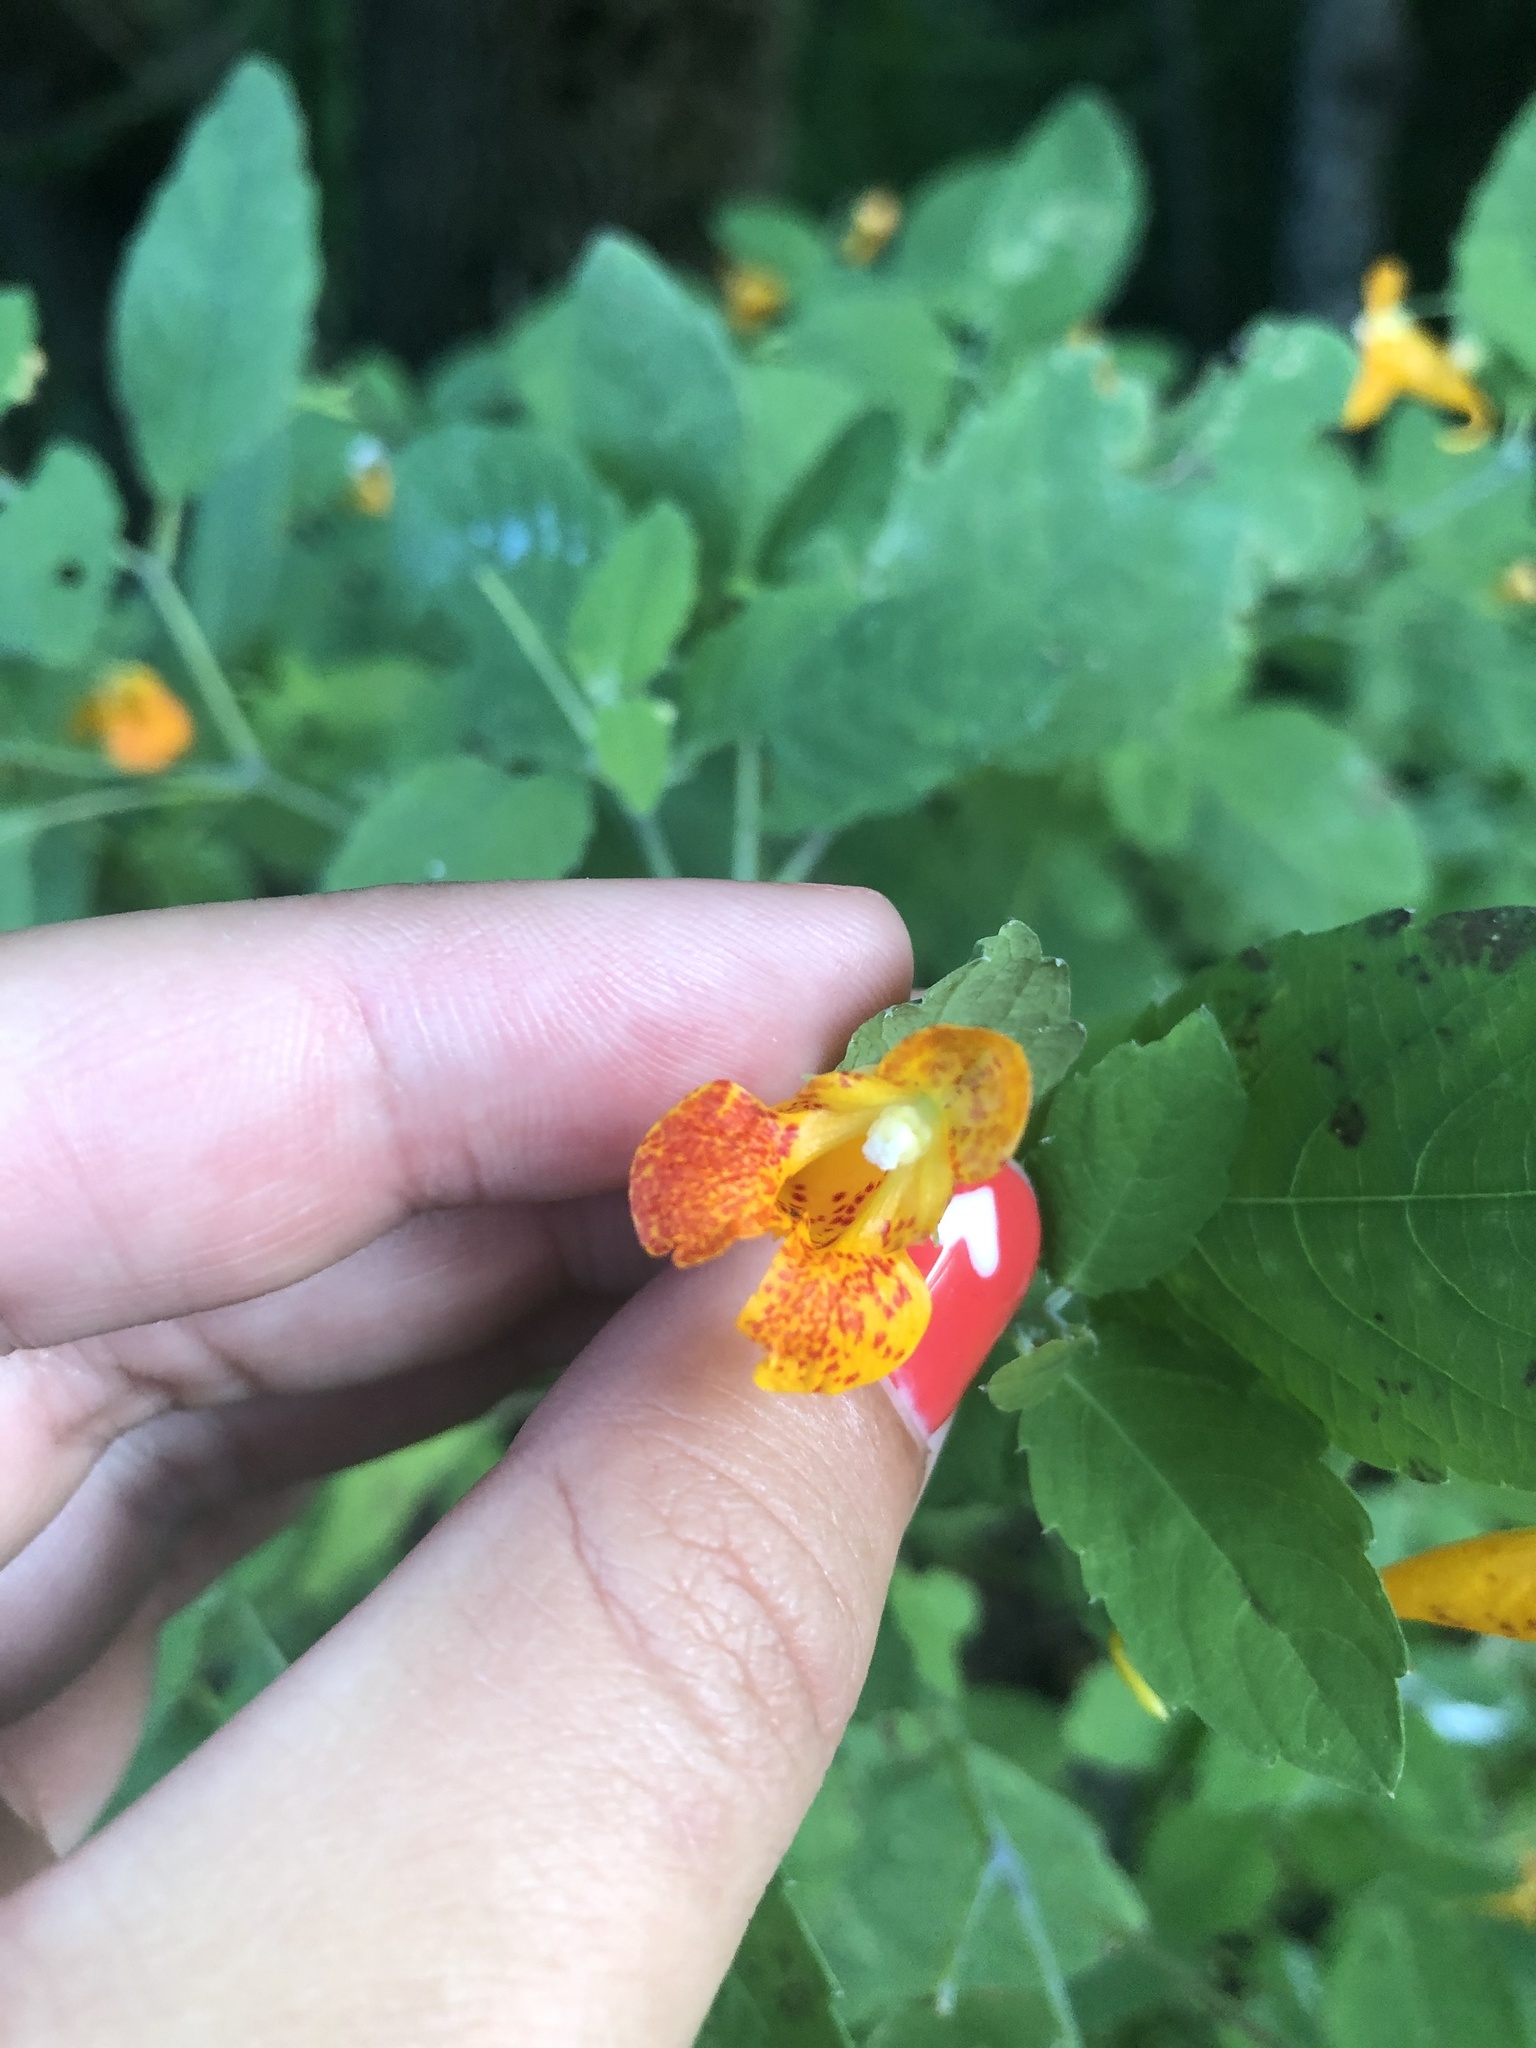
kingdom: Plantae
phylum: Tracheophyta
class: Magnoliopsida
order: Ericales
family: Balsaminaceae
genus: Impatiens
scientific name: Impatiens capensis
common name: Orange balsam
